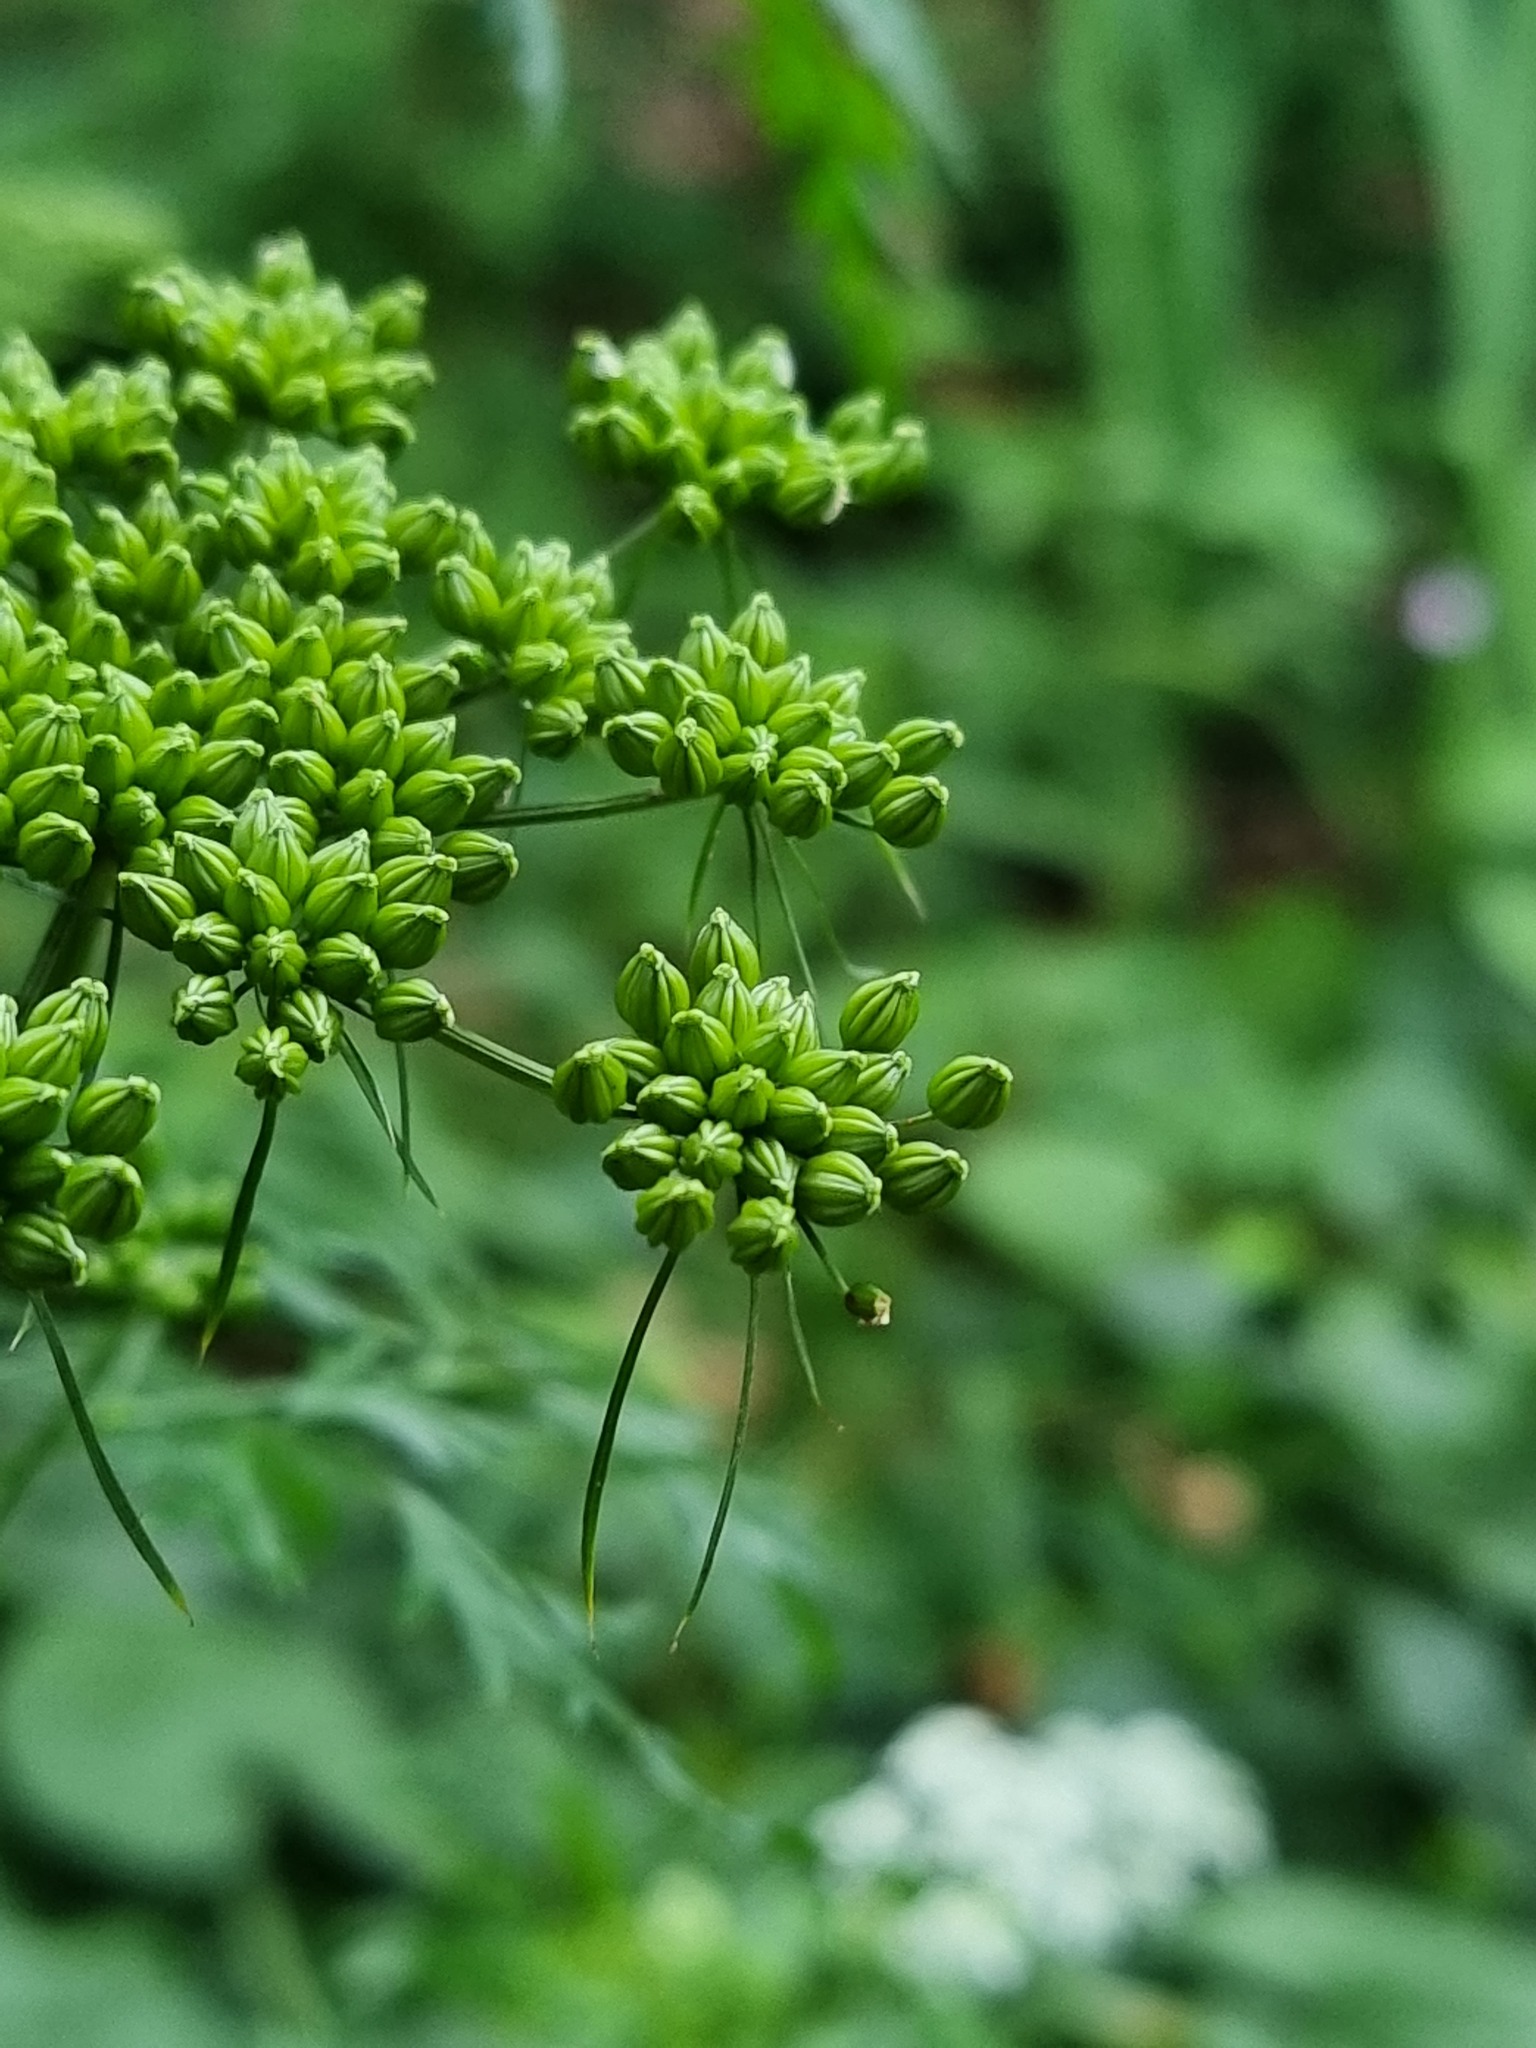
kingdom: Plantae
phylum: Tracheophyta
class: Magnoliopsida
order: Apiales
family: Apiaceae
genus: Aethusa
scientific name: Aethusa cynapium
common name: Fool's parsley
